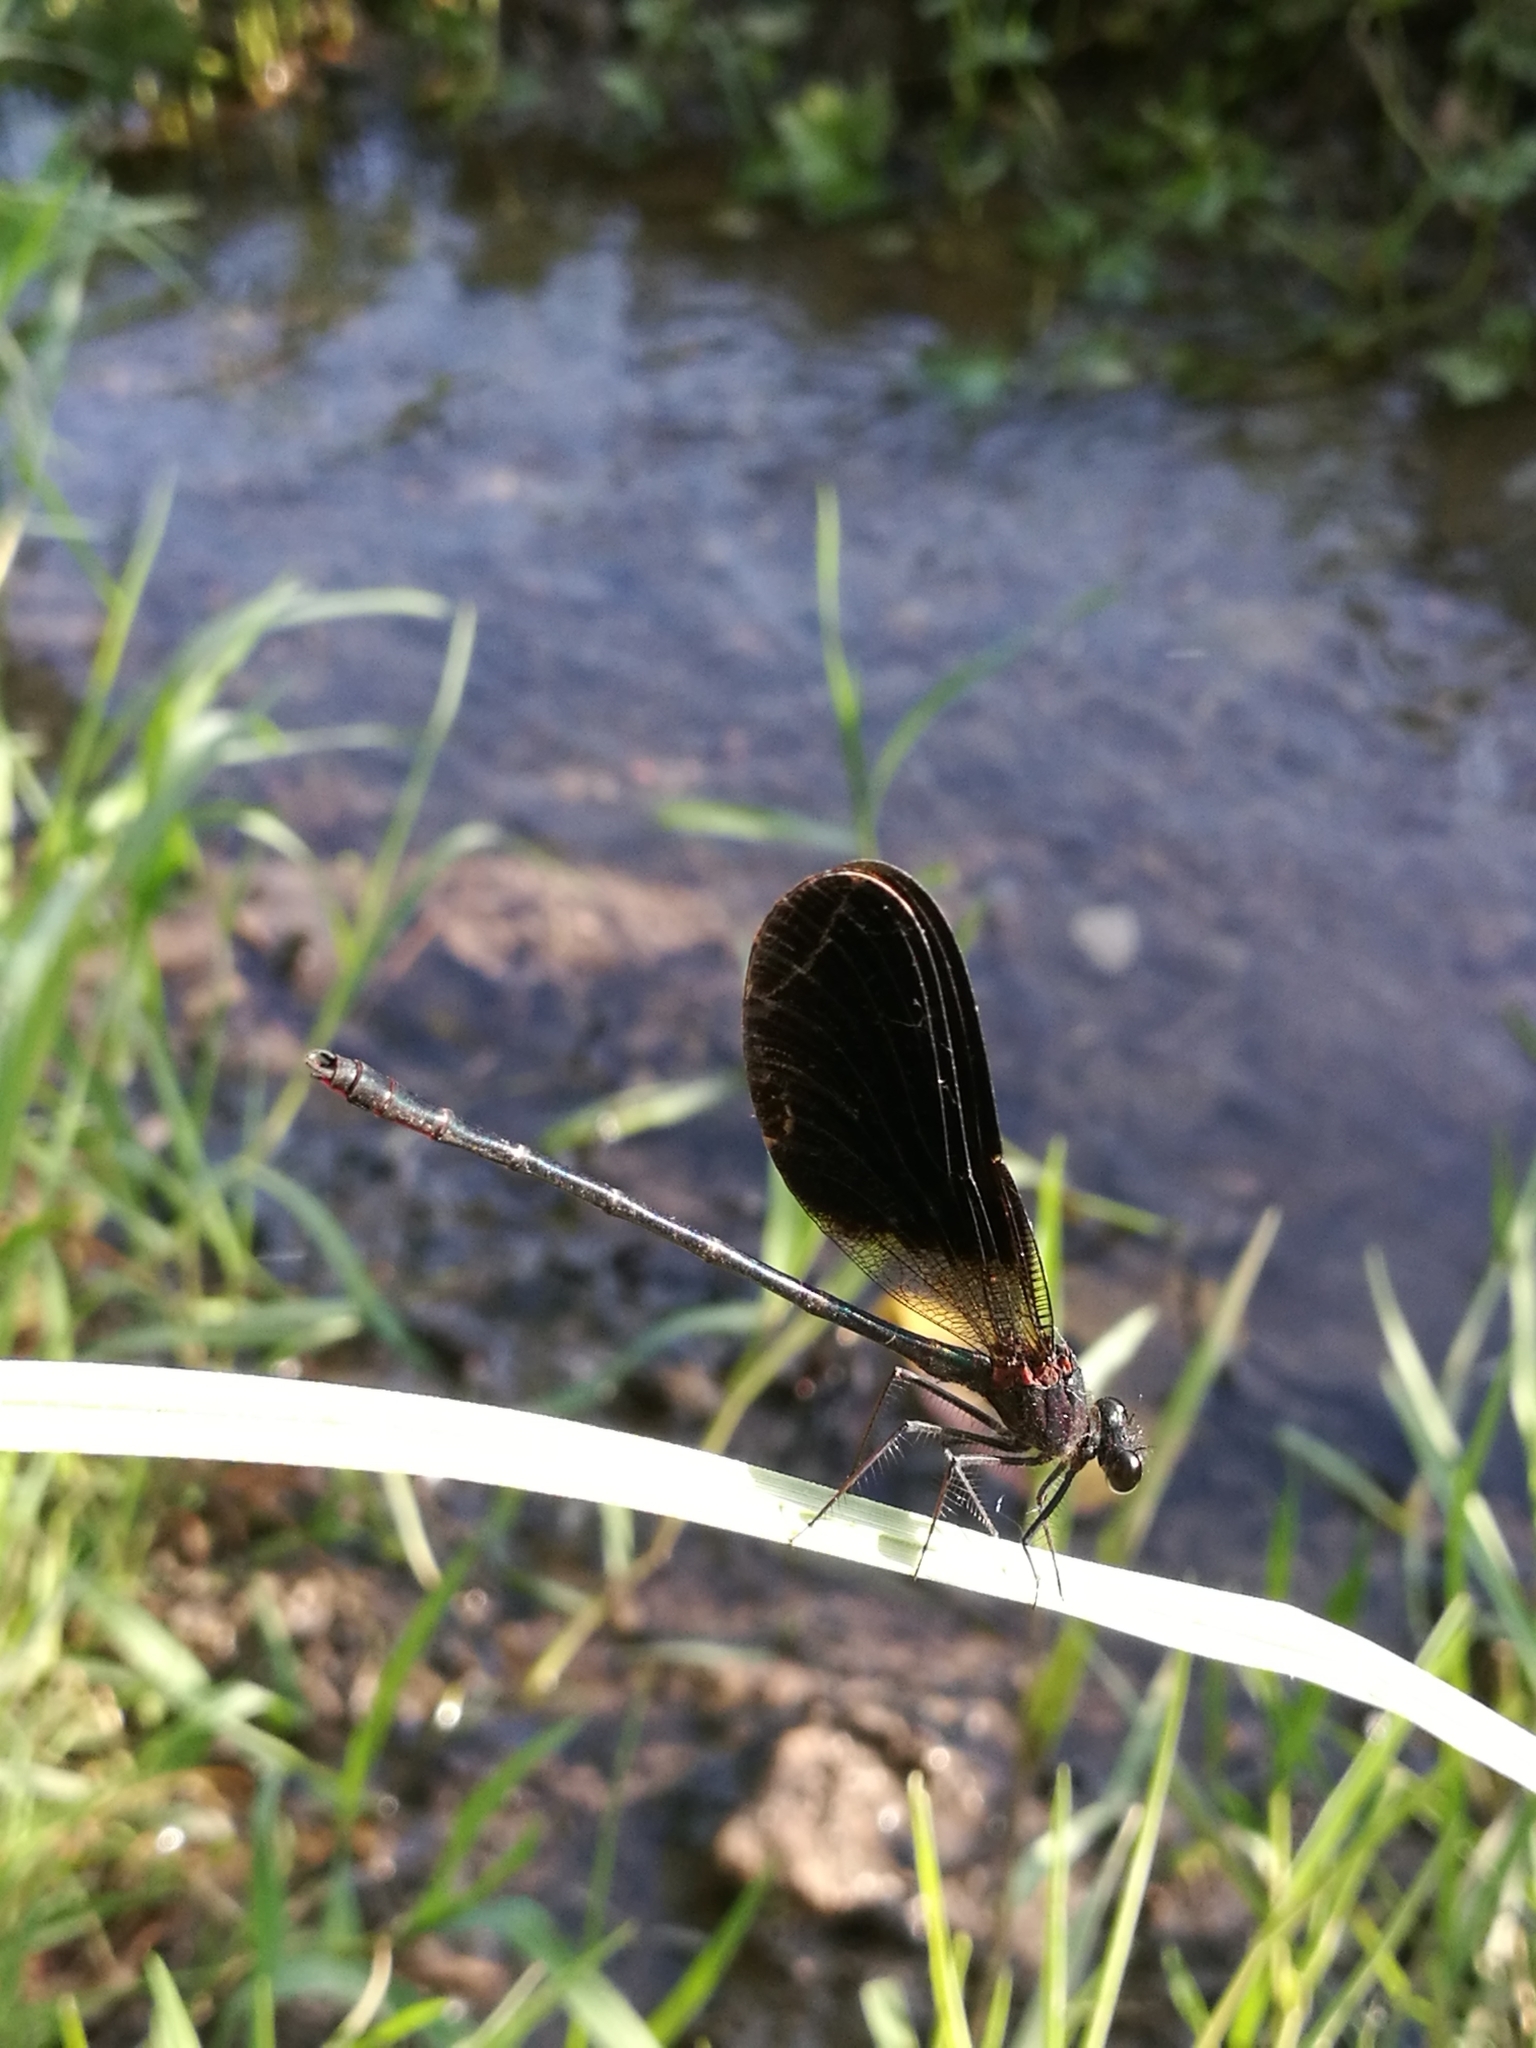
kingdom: Animalia
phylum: Arthropoda
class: Insecta
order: Odonata
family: Calopterygidae
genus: Calopteryx
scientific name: Calopteryx haemorrhoidalis
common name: Copper demoiselle
